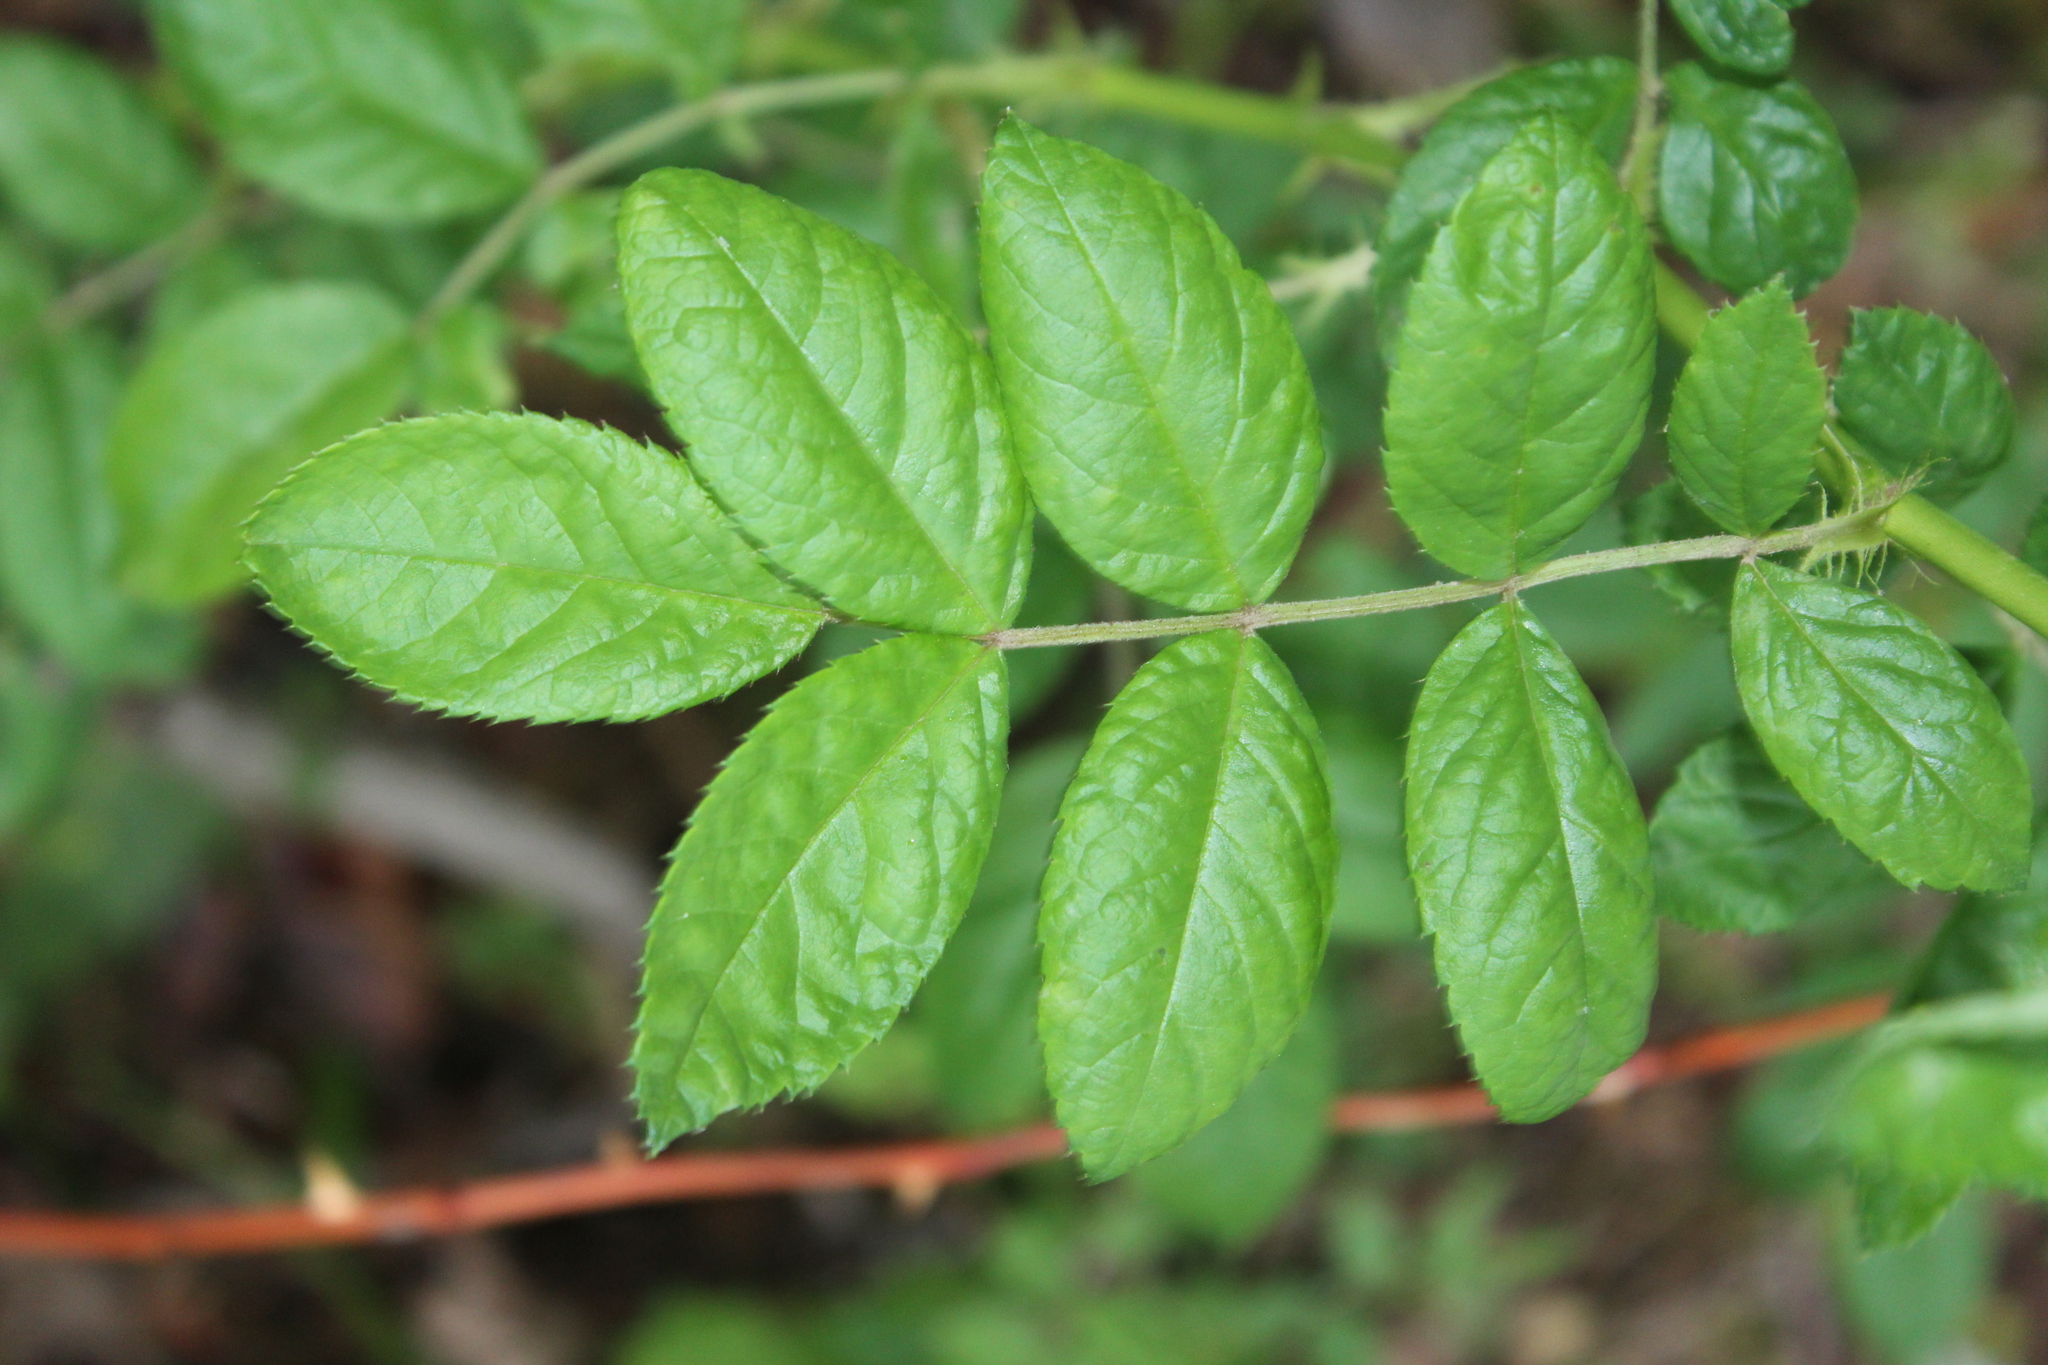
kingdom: Plantae
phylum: Tracheophyta
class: Magnoliopsida
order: Rosales
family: Rosaceae
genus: Rosa
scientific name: Rosa multiflora
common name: Multiflora rose
